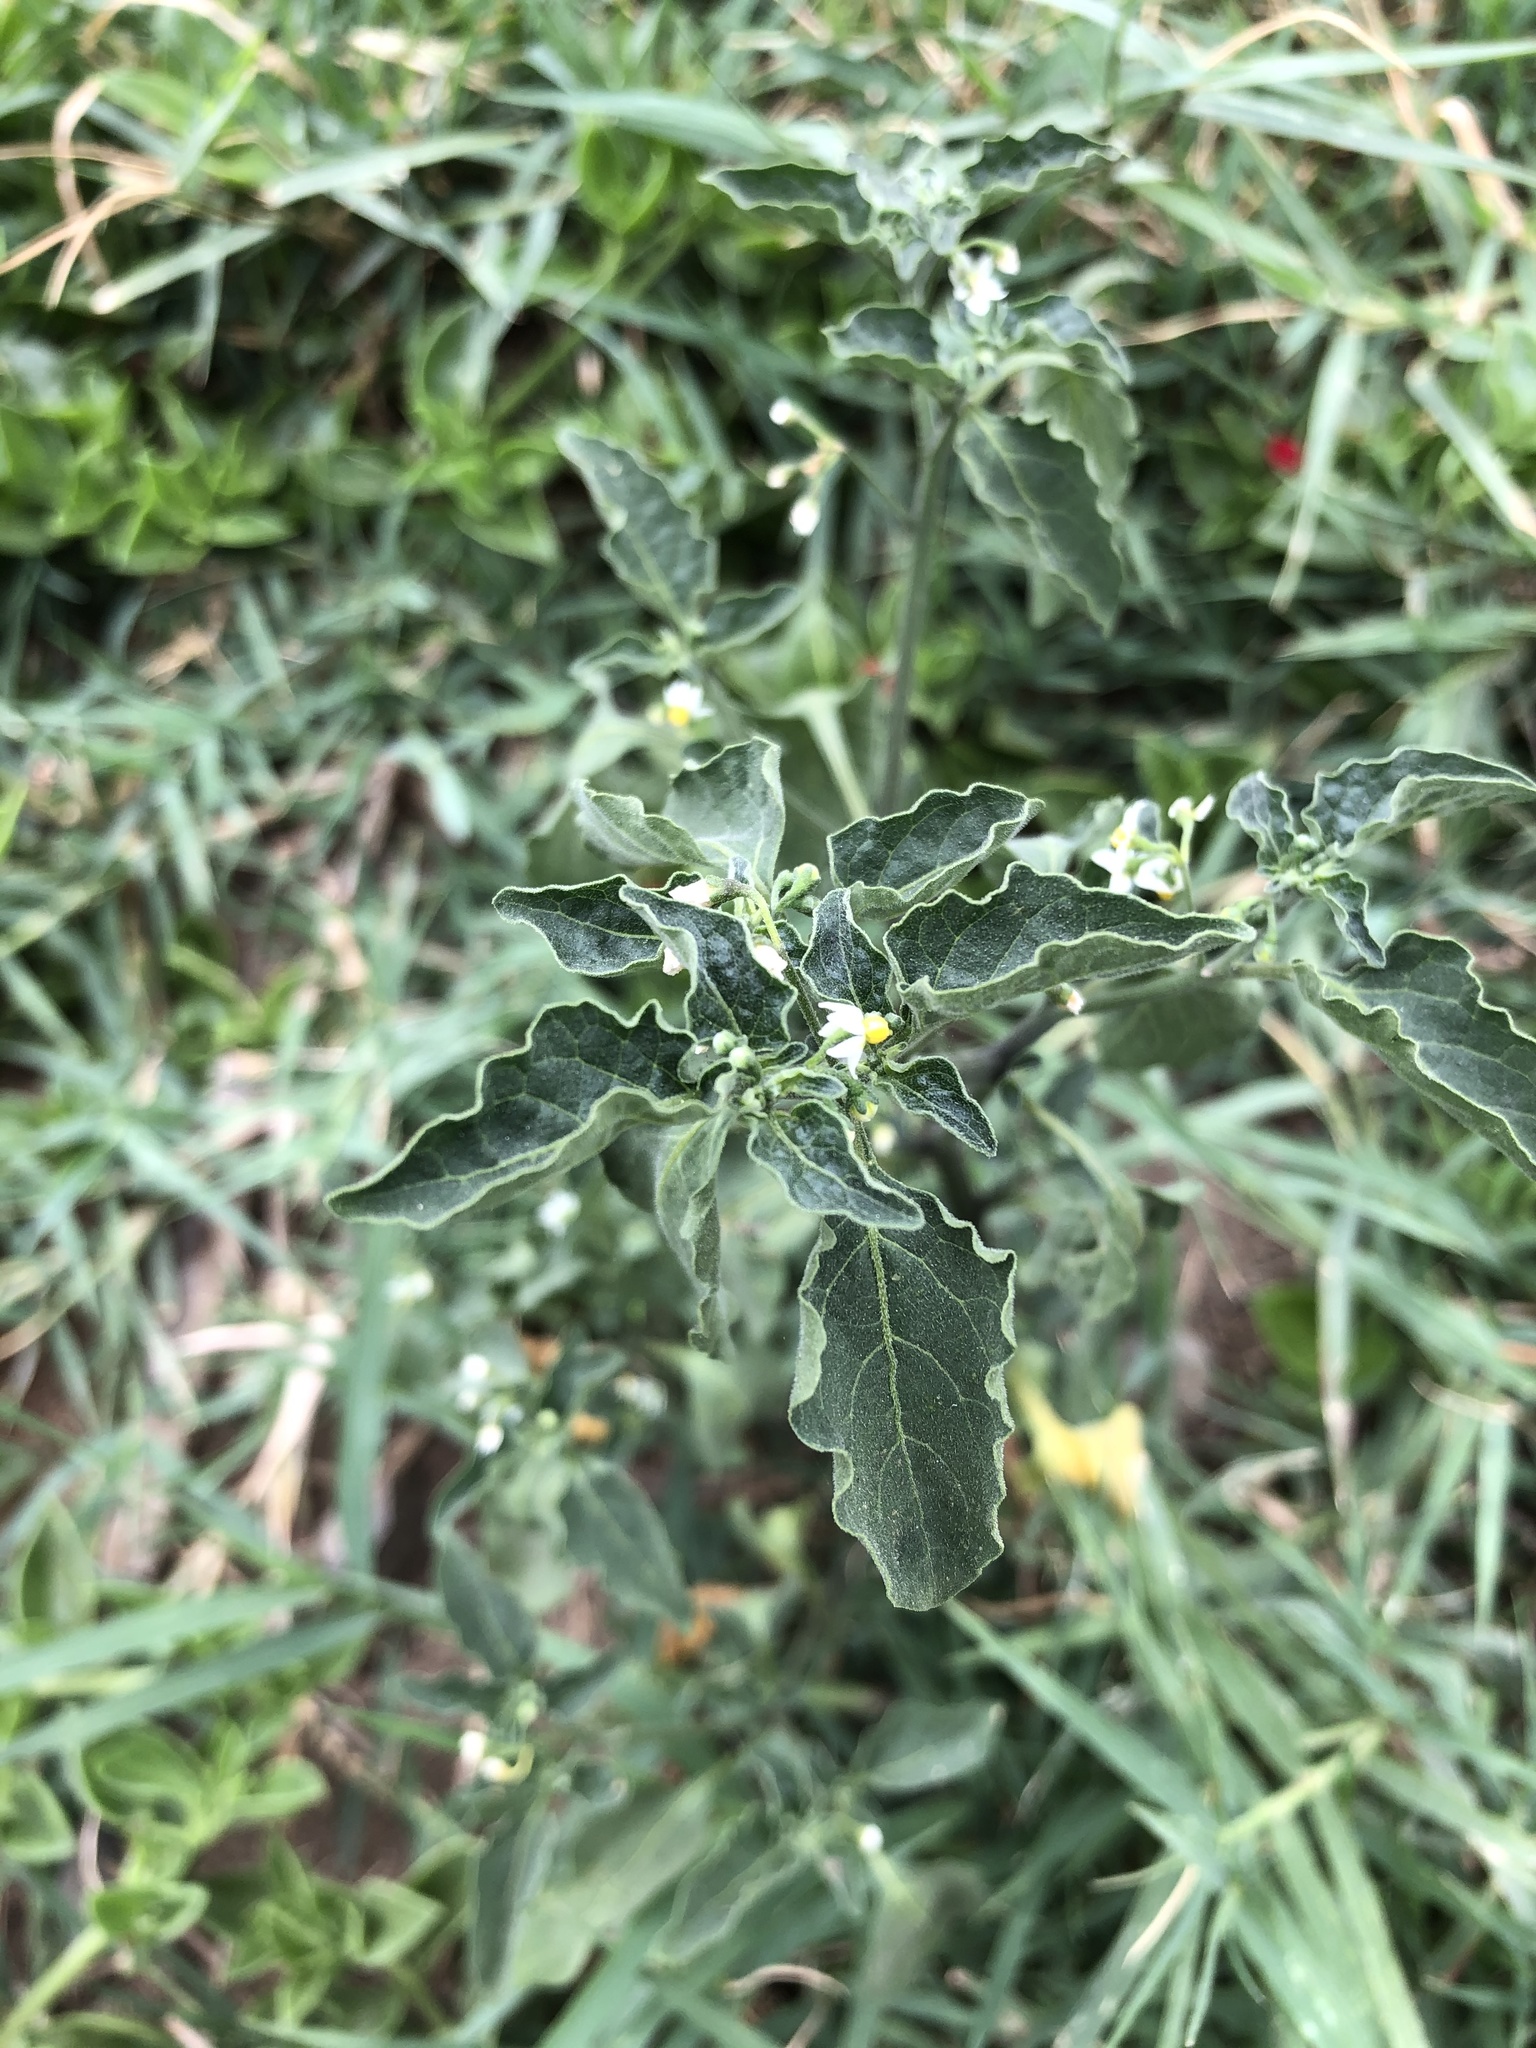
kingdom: Plantae
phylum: Tracheophyta
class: Magnoliopsida
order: Solanales
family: Solanaceae
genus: Solanum
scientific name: Solanum americanum
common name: American black nightshade
